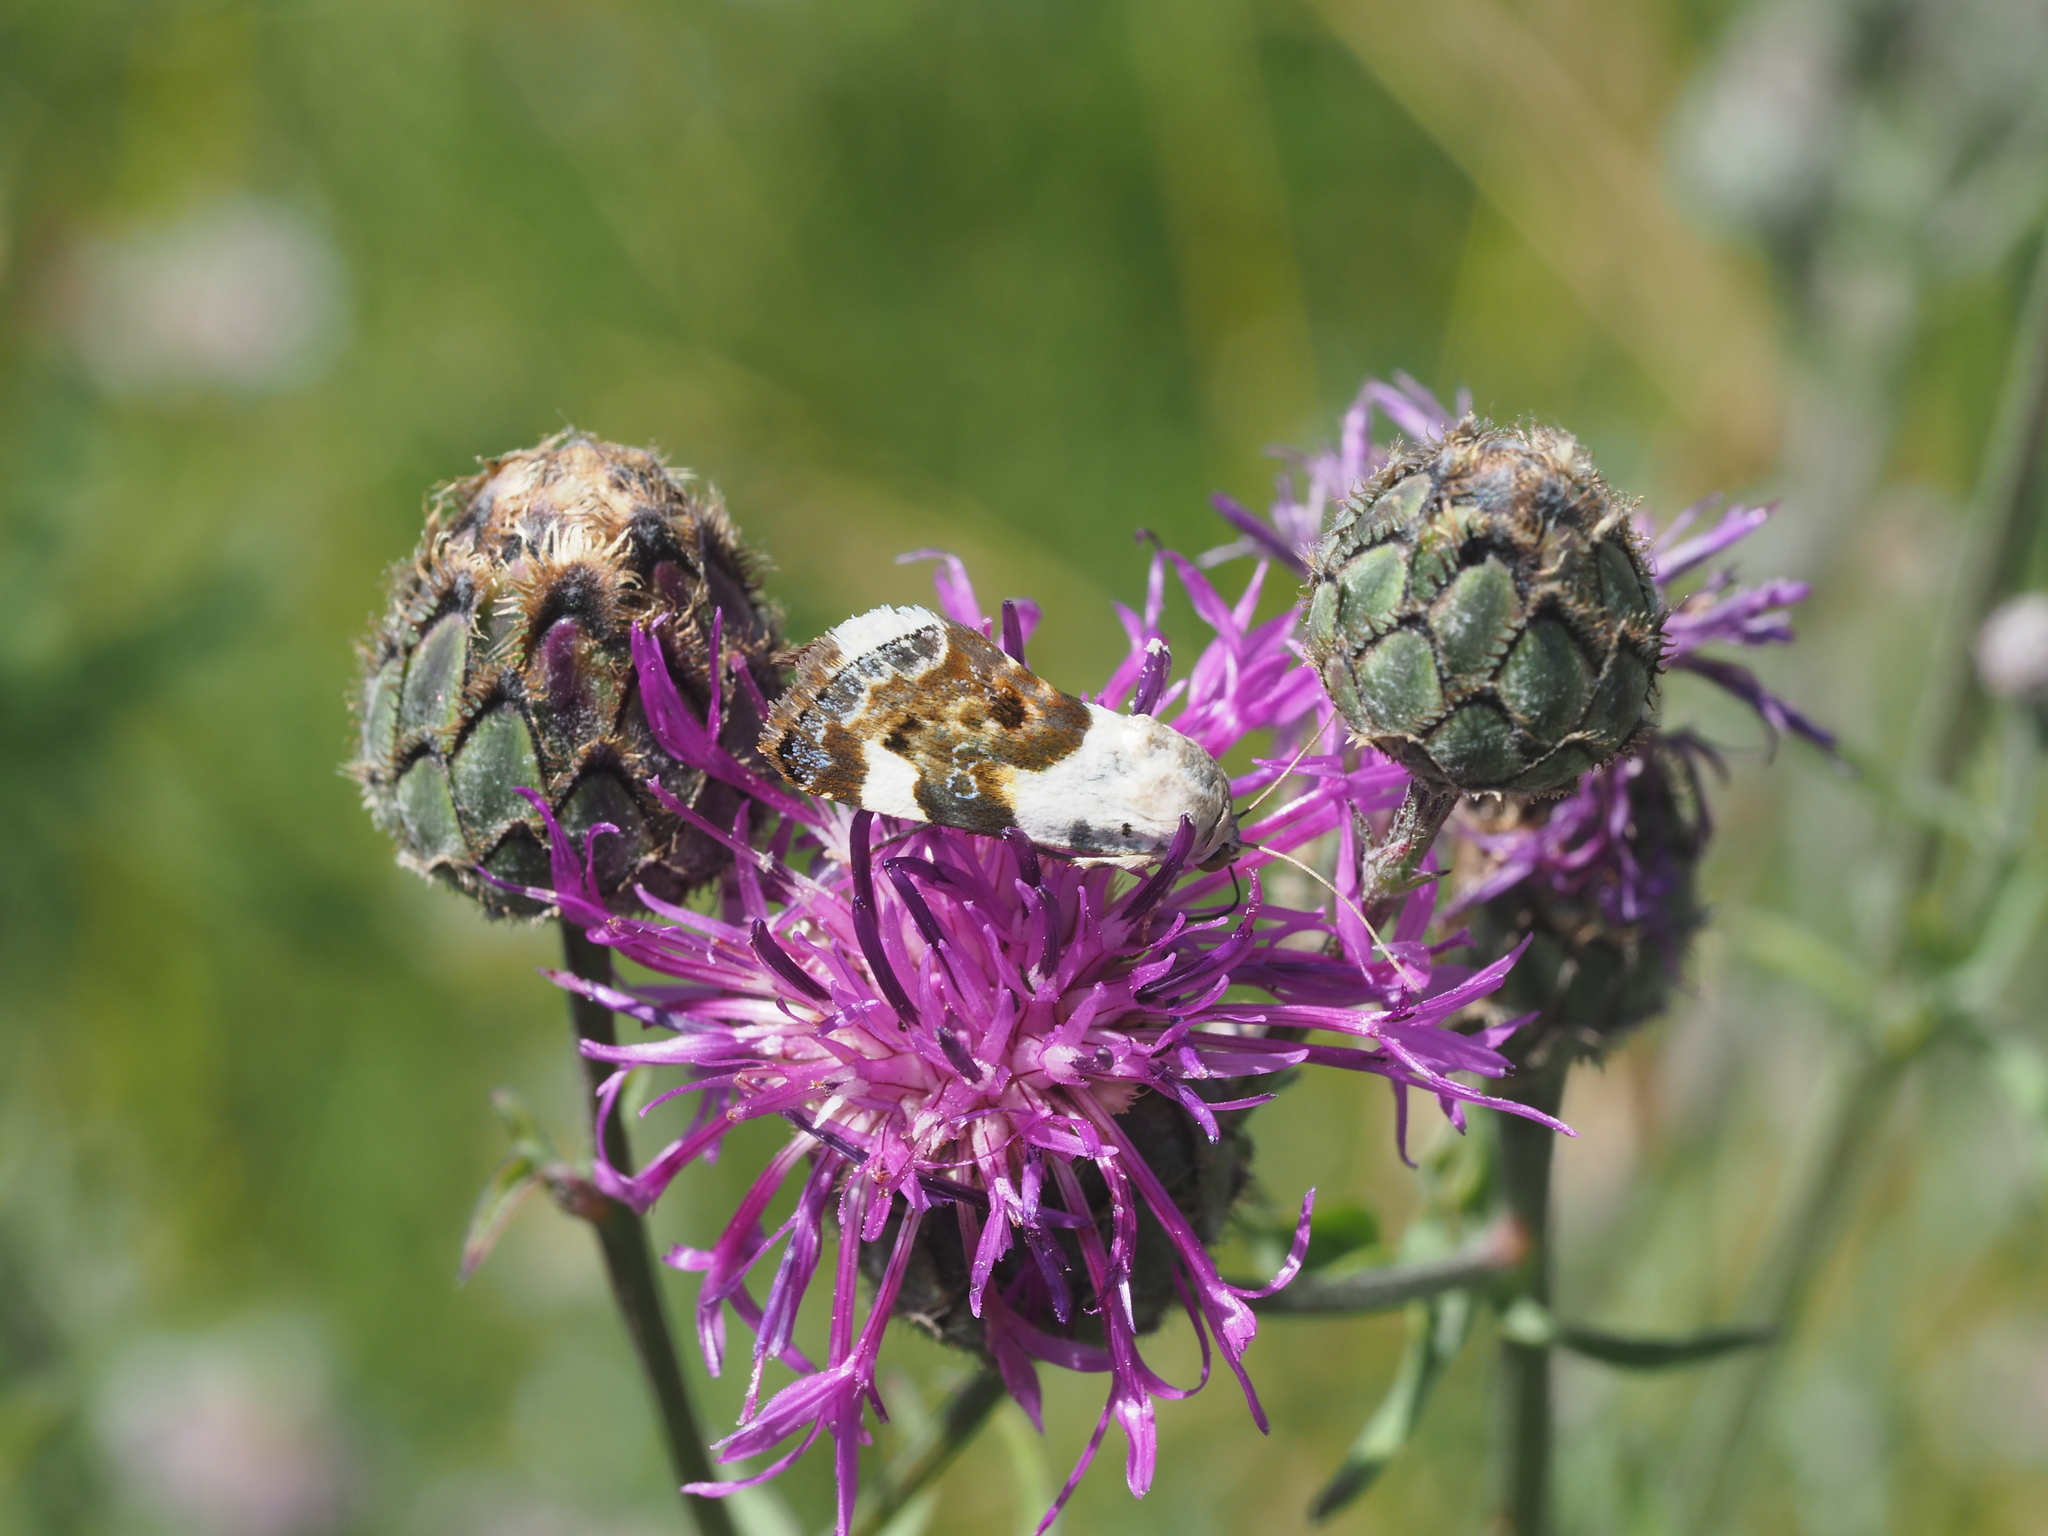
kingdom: Animalia
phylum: Arthropoda
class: Insecta
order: Lepidoptera
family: Noctuidae
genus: Acontia
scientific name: Acontia lucida
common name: Pale shoulder
